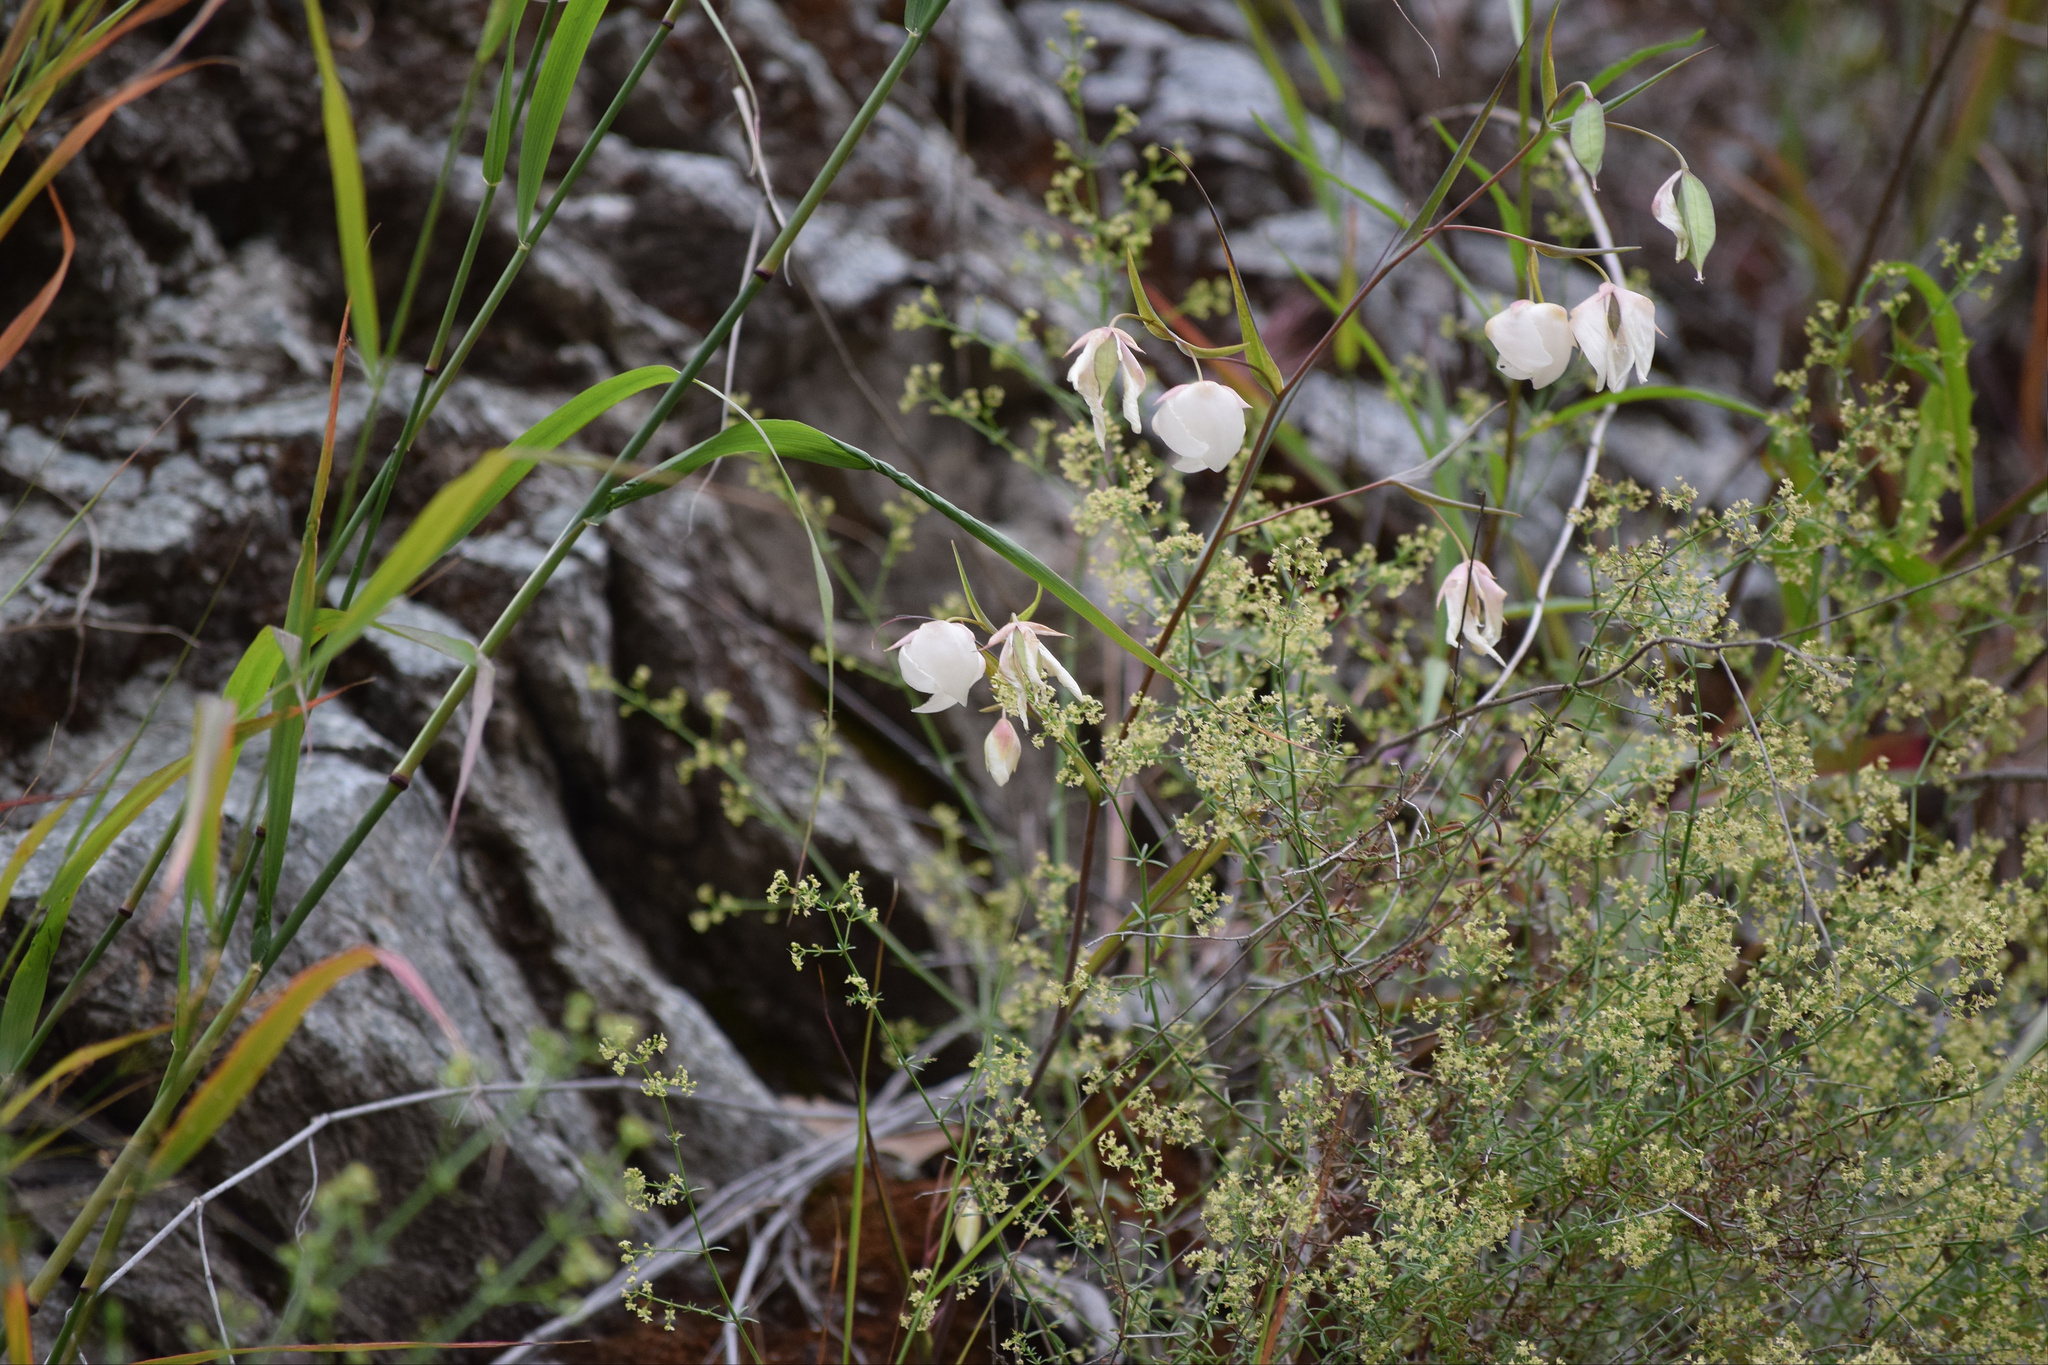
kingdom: Plantae
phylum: Tracheophyta
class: Liliopsida
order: Liliales
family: Liliaceae
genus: Calochortus
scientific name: Calochortus albus
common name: Fairy-lantern
